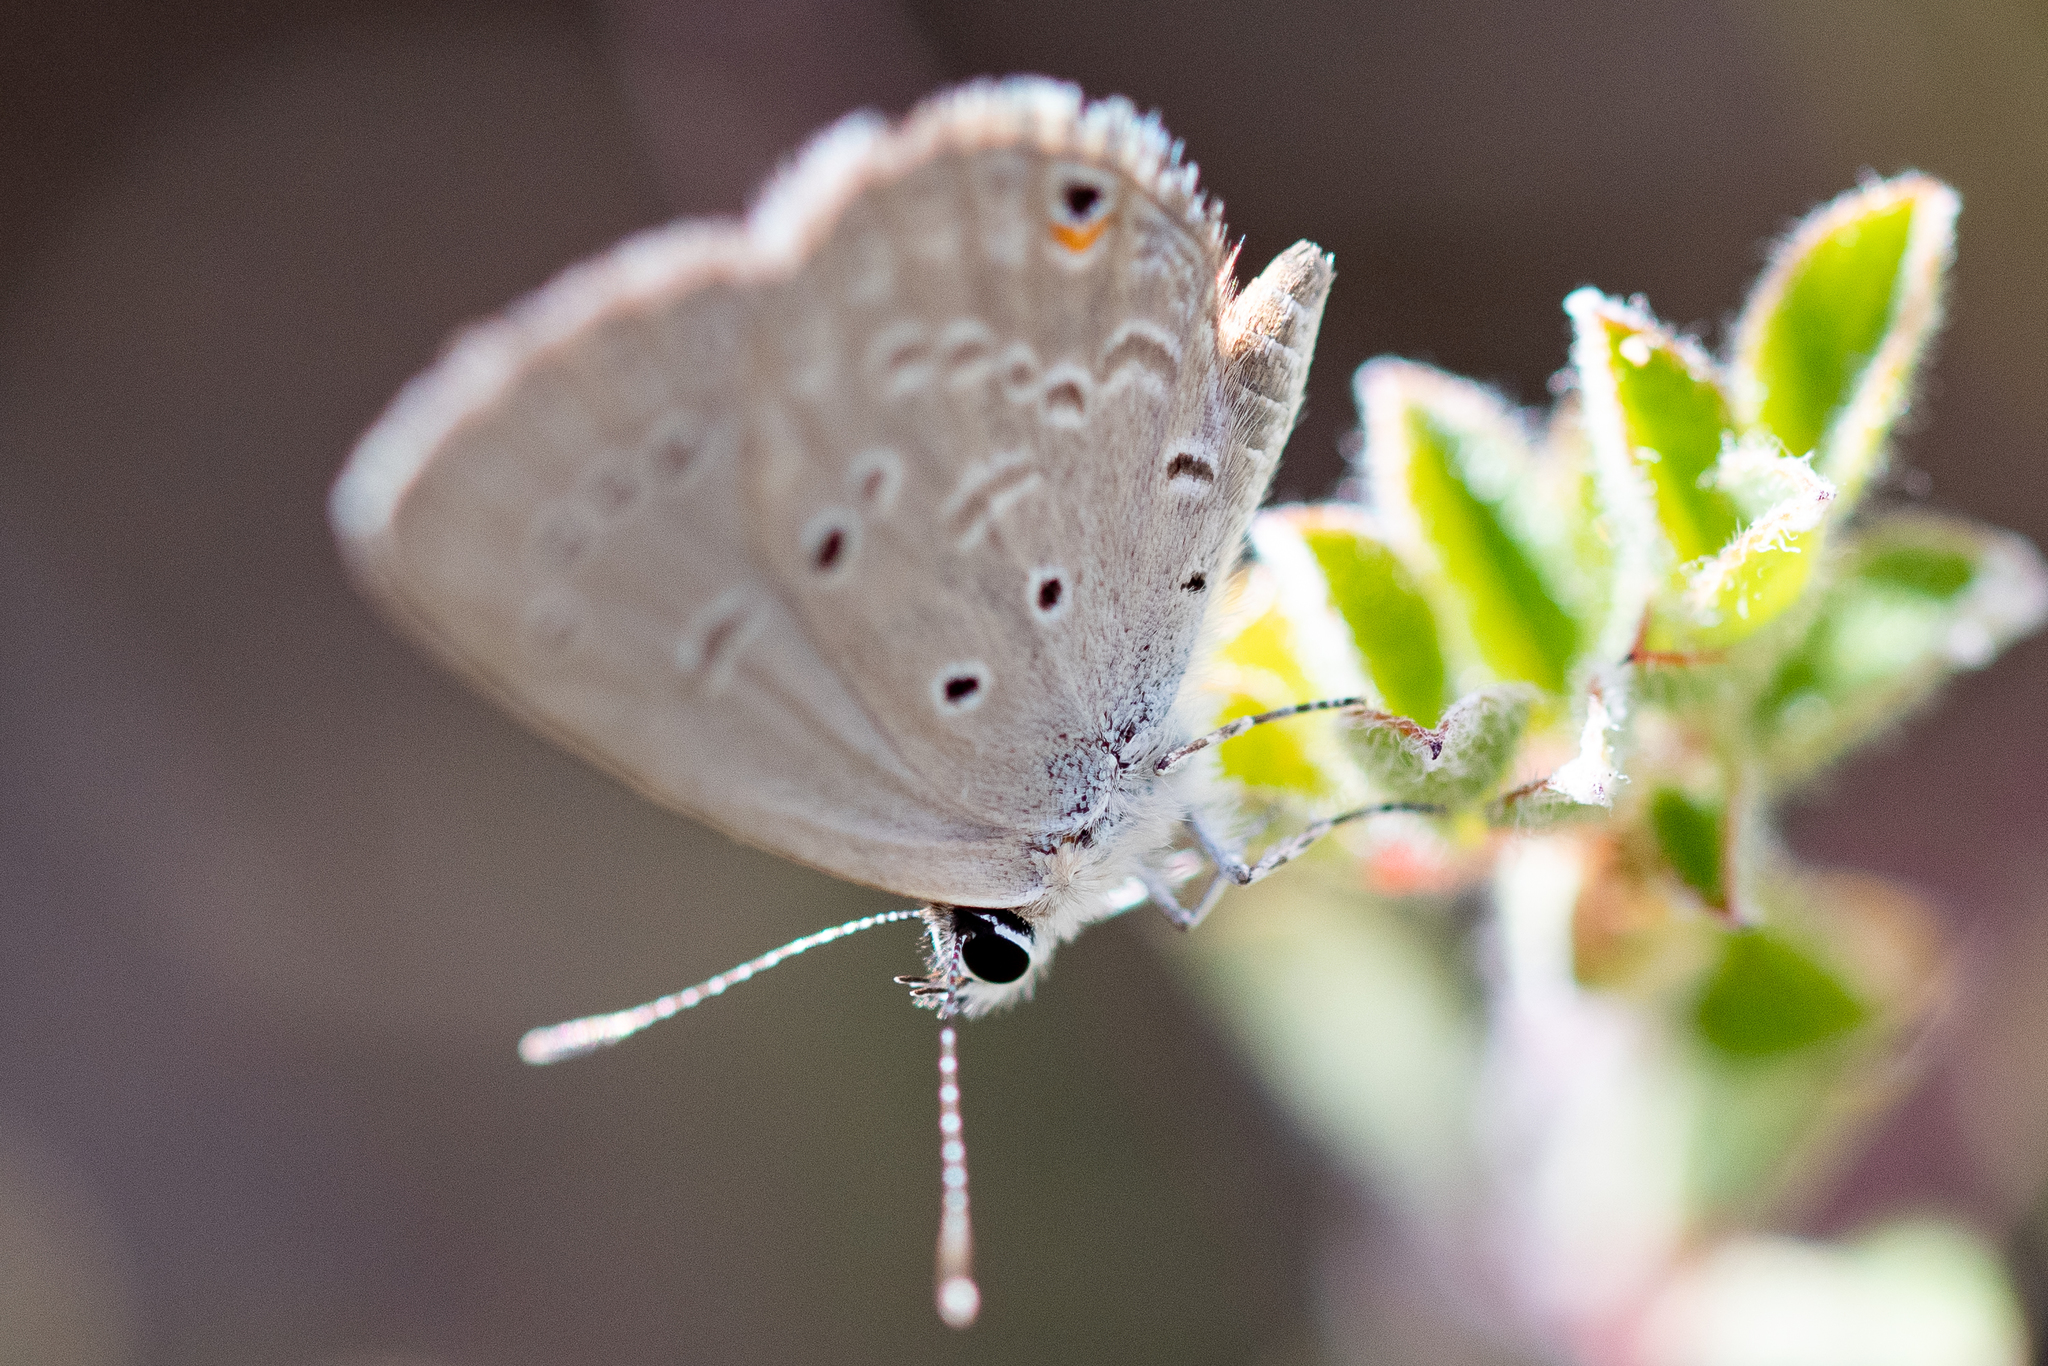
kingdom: Animalia
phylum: Arthropoda
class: Insecta
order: Lepidoptera
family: Lycaenidae
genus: Eicochrysops
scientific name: Eicochrysops messapus
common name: Cupreous blue
